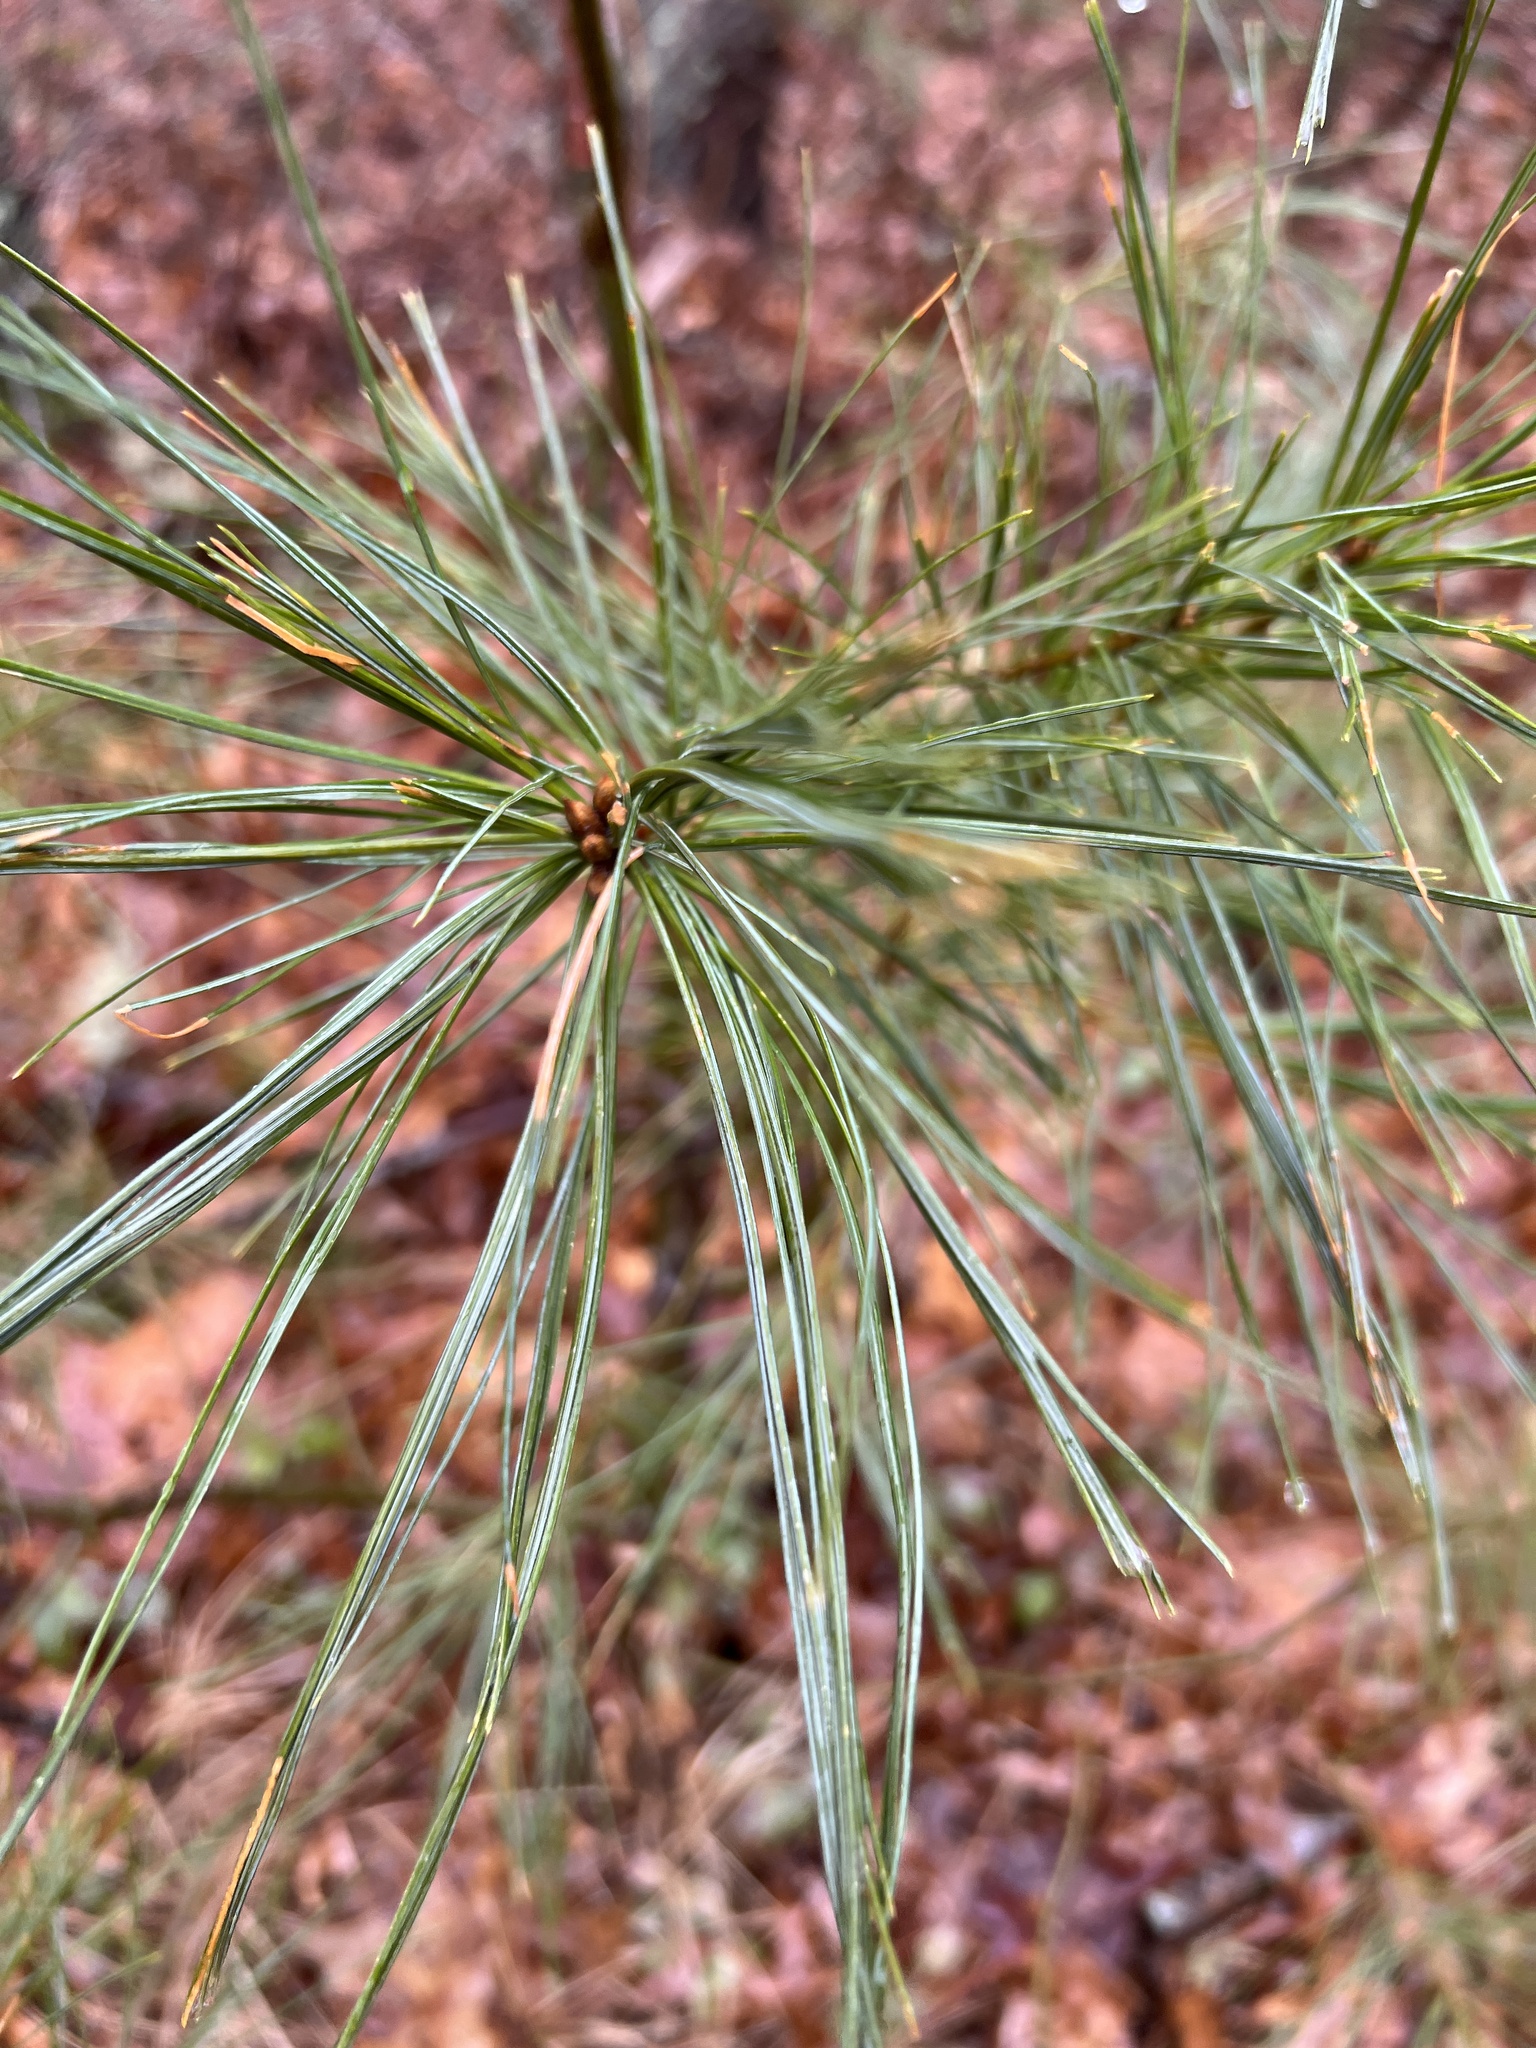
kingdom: Plantae
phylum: Tracheophyta
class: Pinopsida
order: Pinales
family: Pinaceae
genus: Pinus
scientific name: Pinus strobus
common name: Weymouth pine
